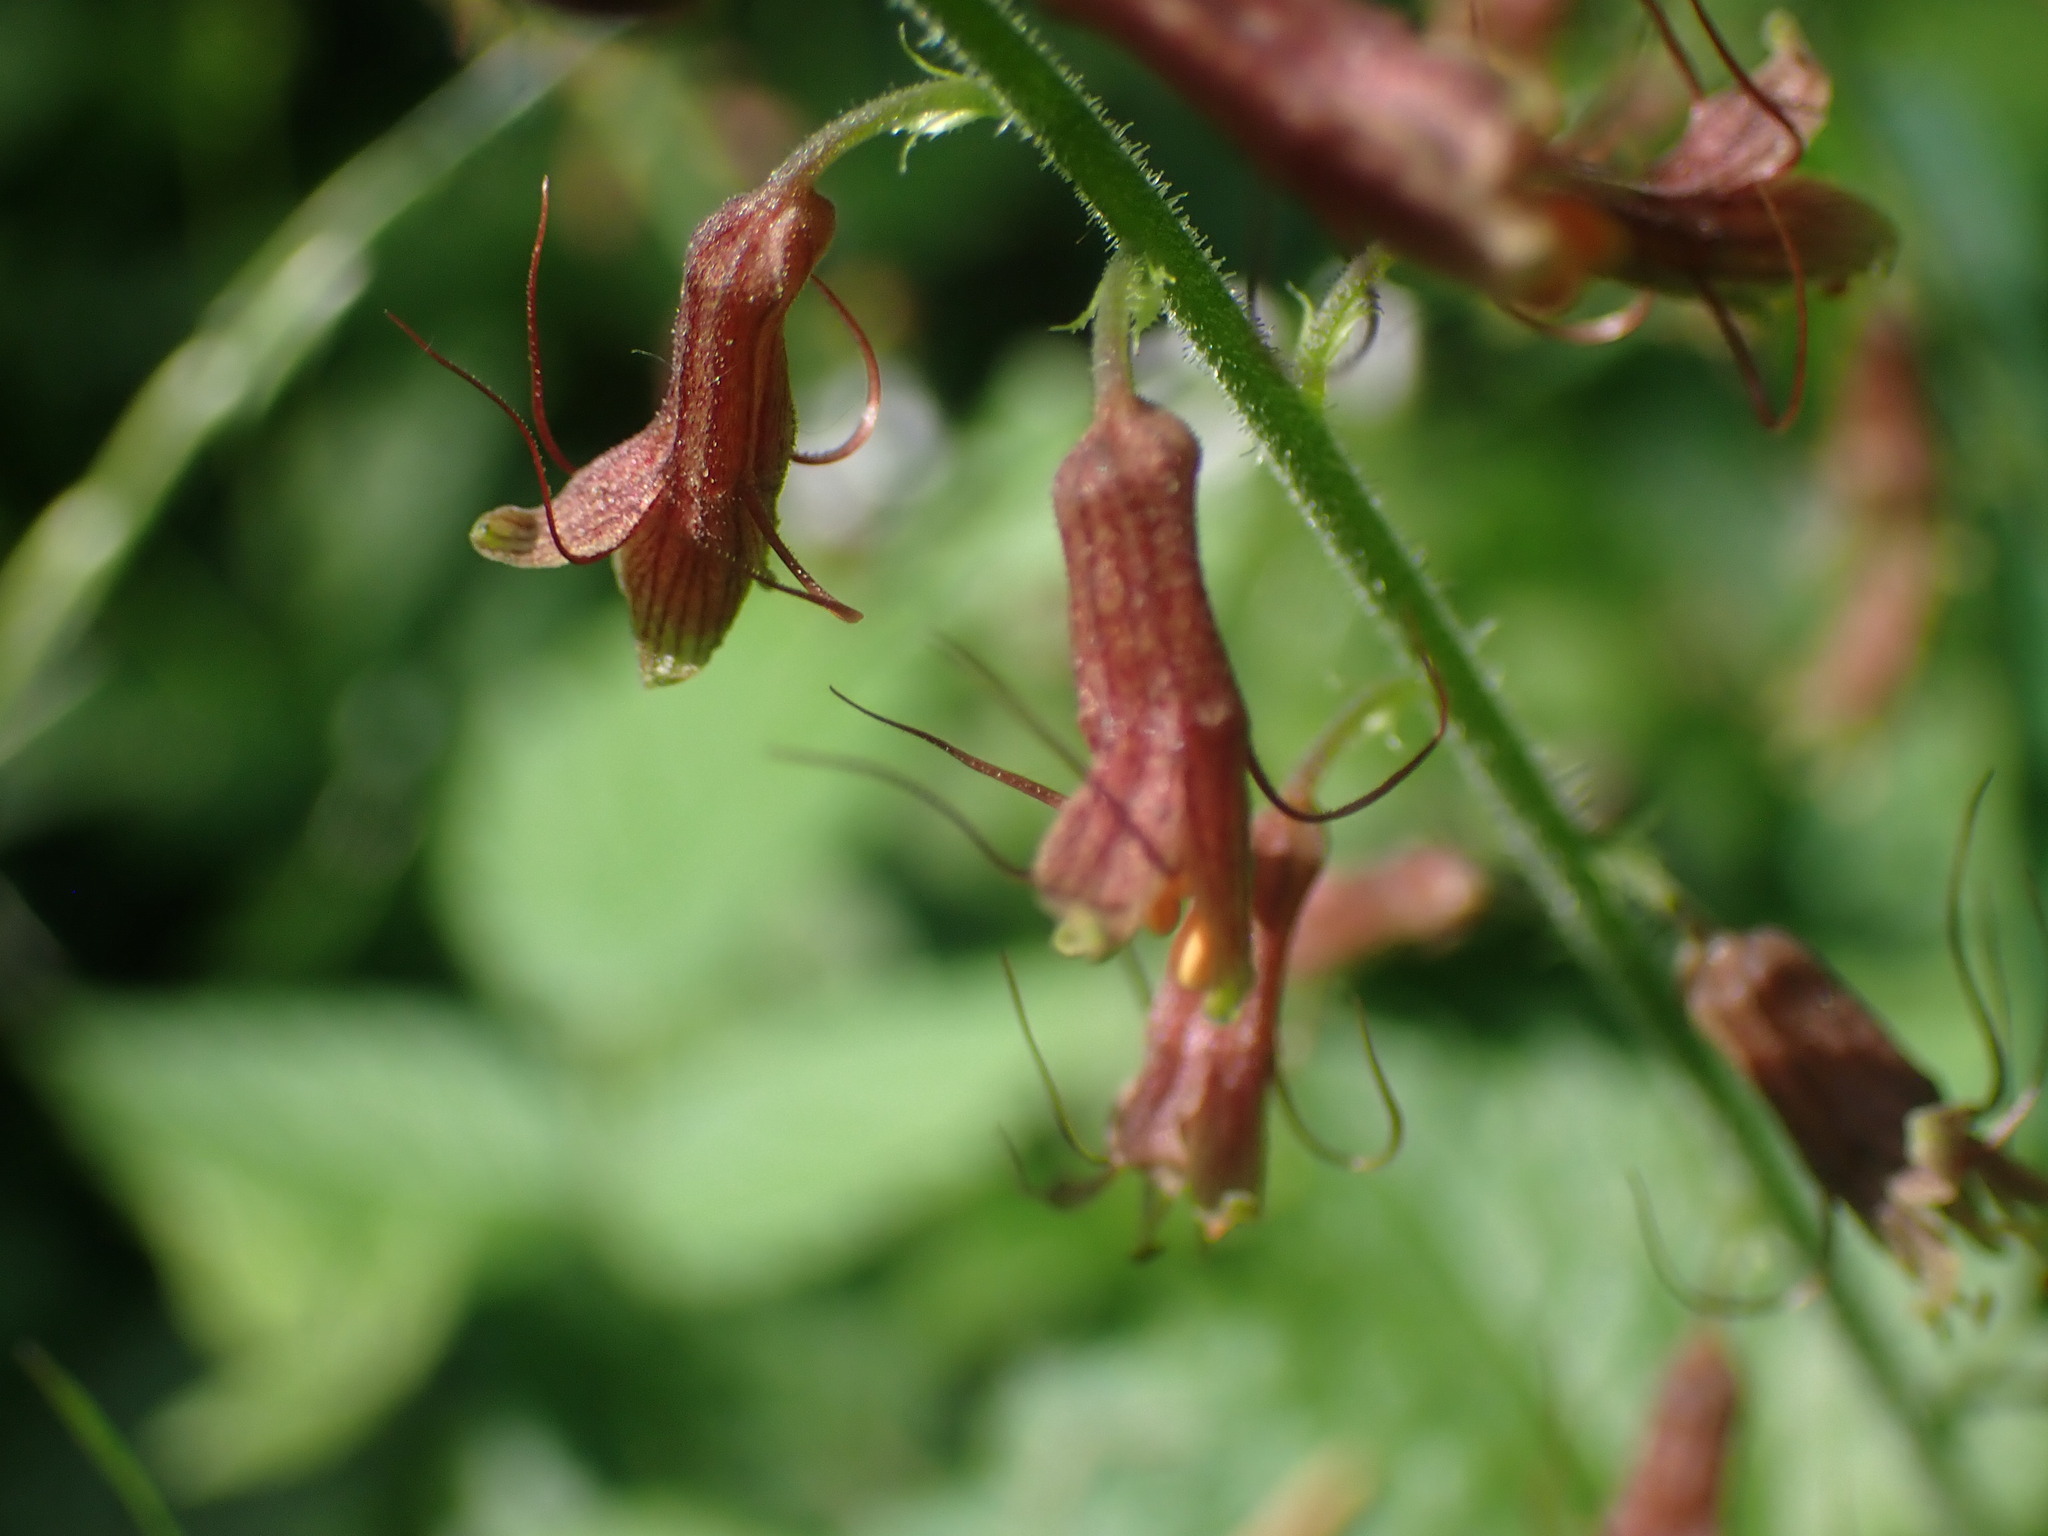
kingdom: Plantae
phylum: Tracheophyta
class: Magnoliopsida
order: Saxifragales
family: Saxifragaceae
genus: Tolmiea
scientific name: Tolmiea menziesii
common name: Pick-a-back-plant
